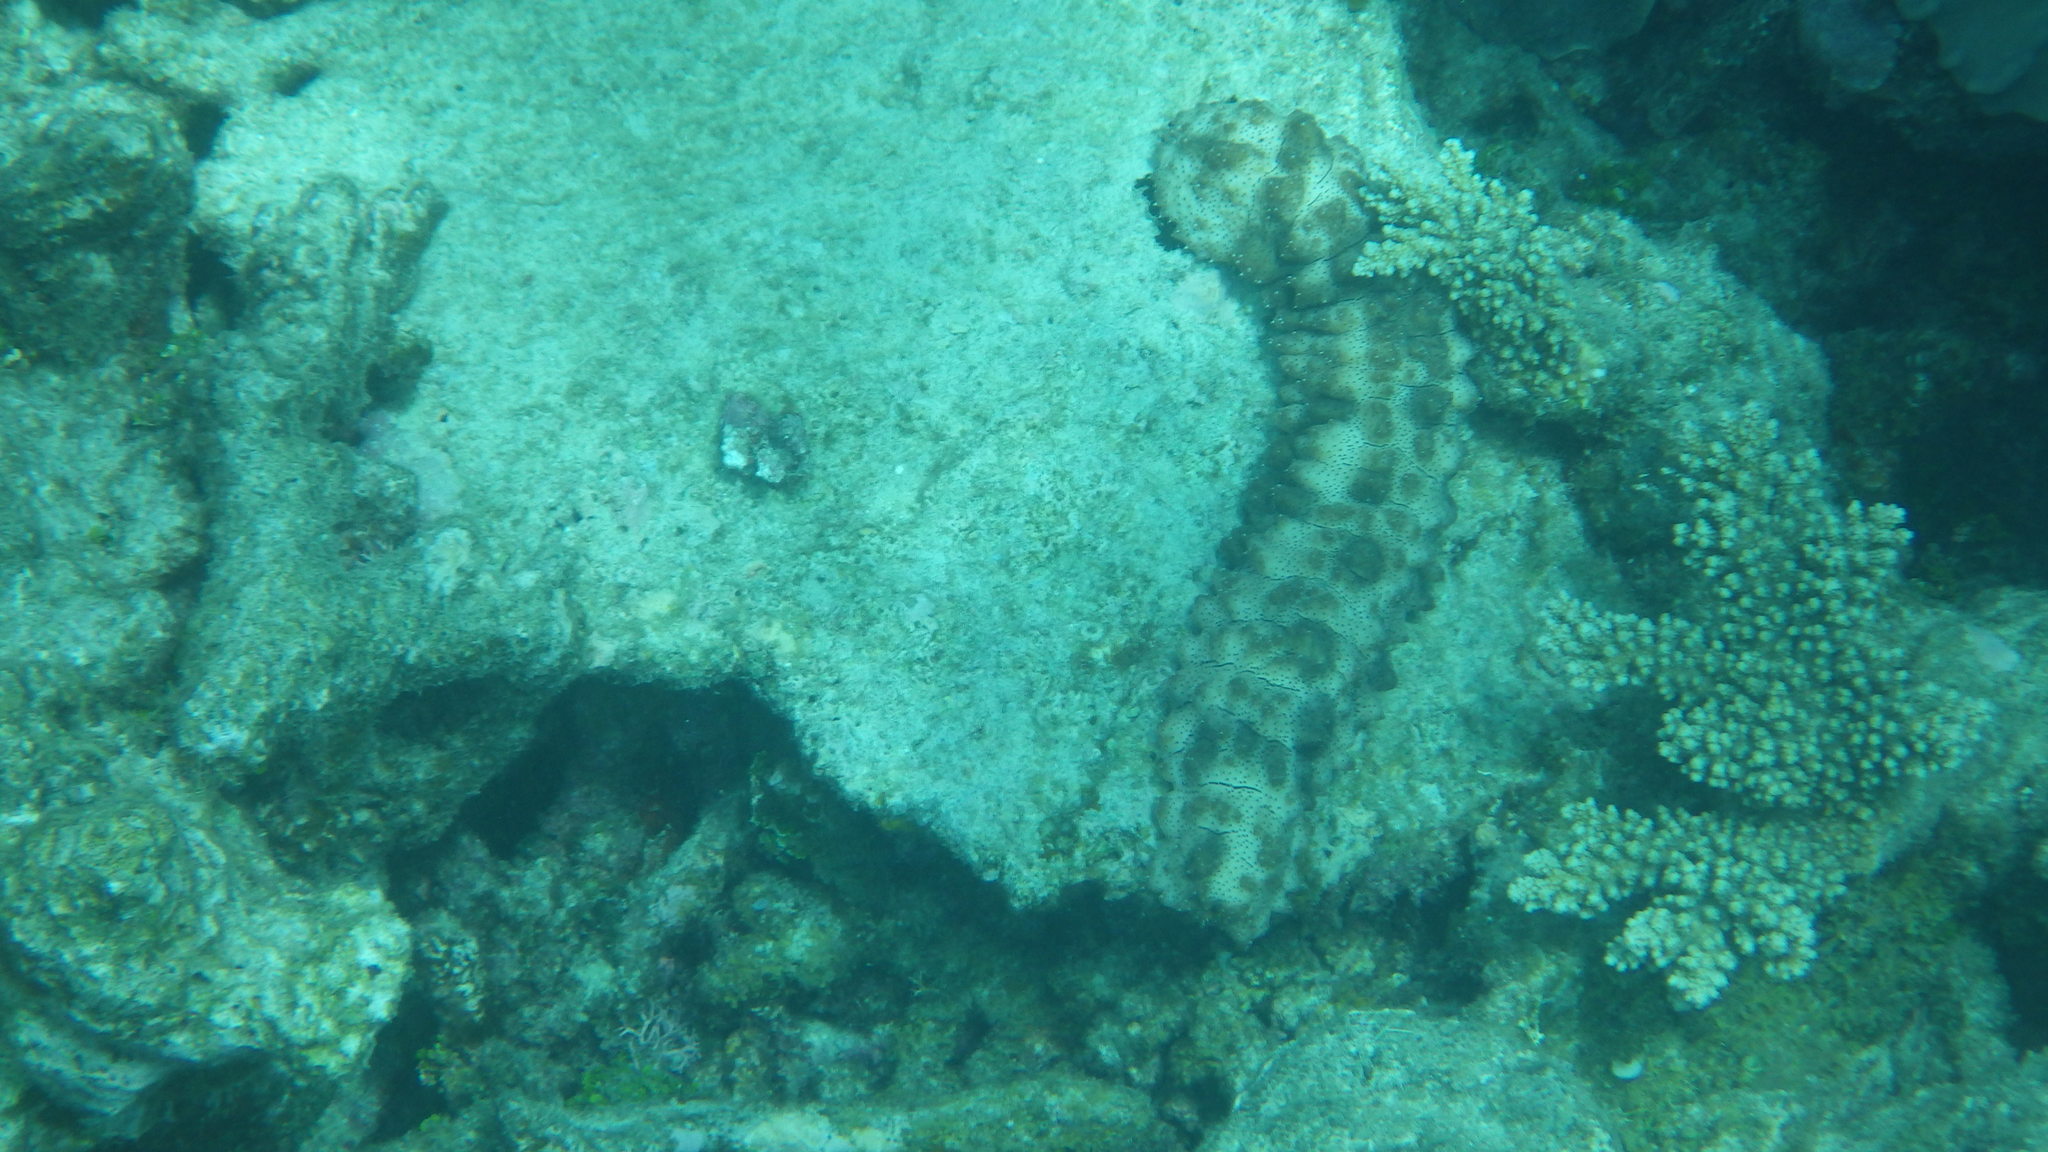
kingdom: Animalia
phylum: Echinodermata
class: Holothuroidea
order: Holothuriida
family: Holothuriidae
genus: Pearsonothuria
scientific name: Pearsonothuria graeffei
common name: Blackspotted sea cucumber
